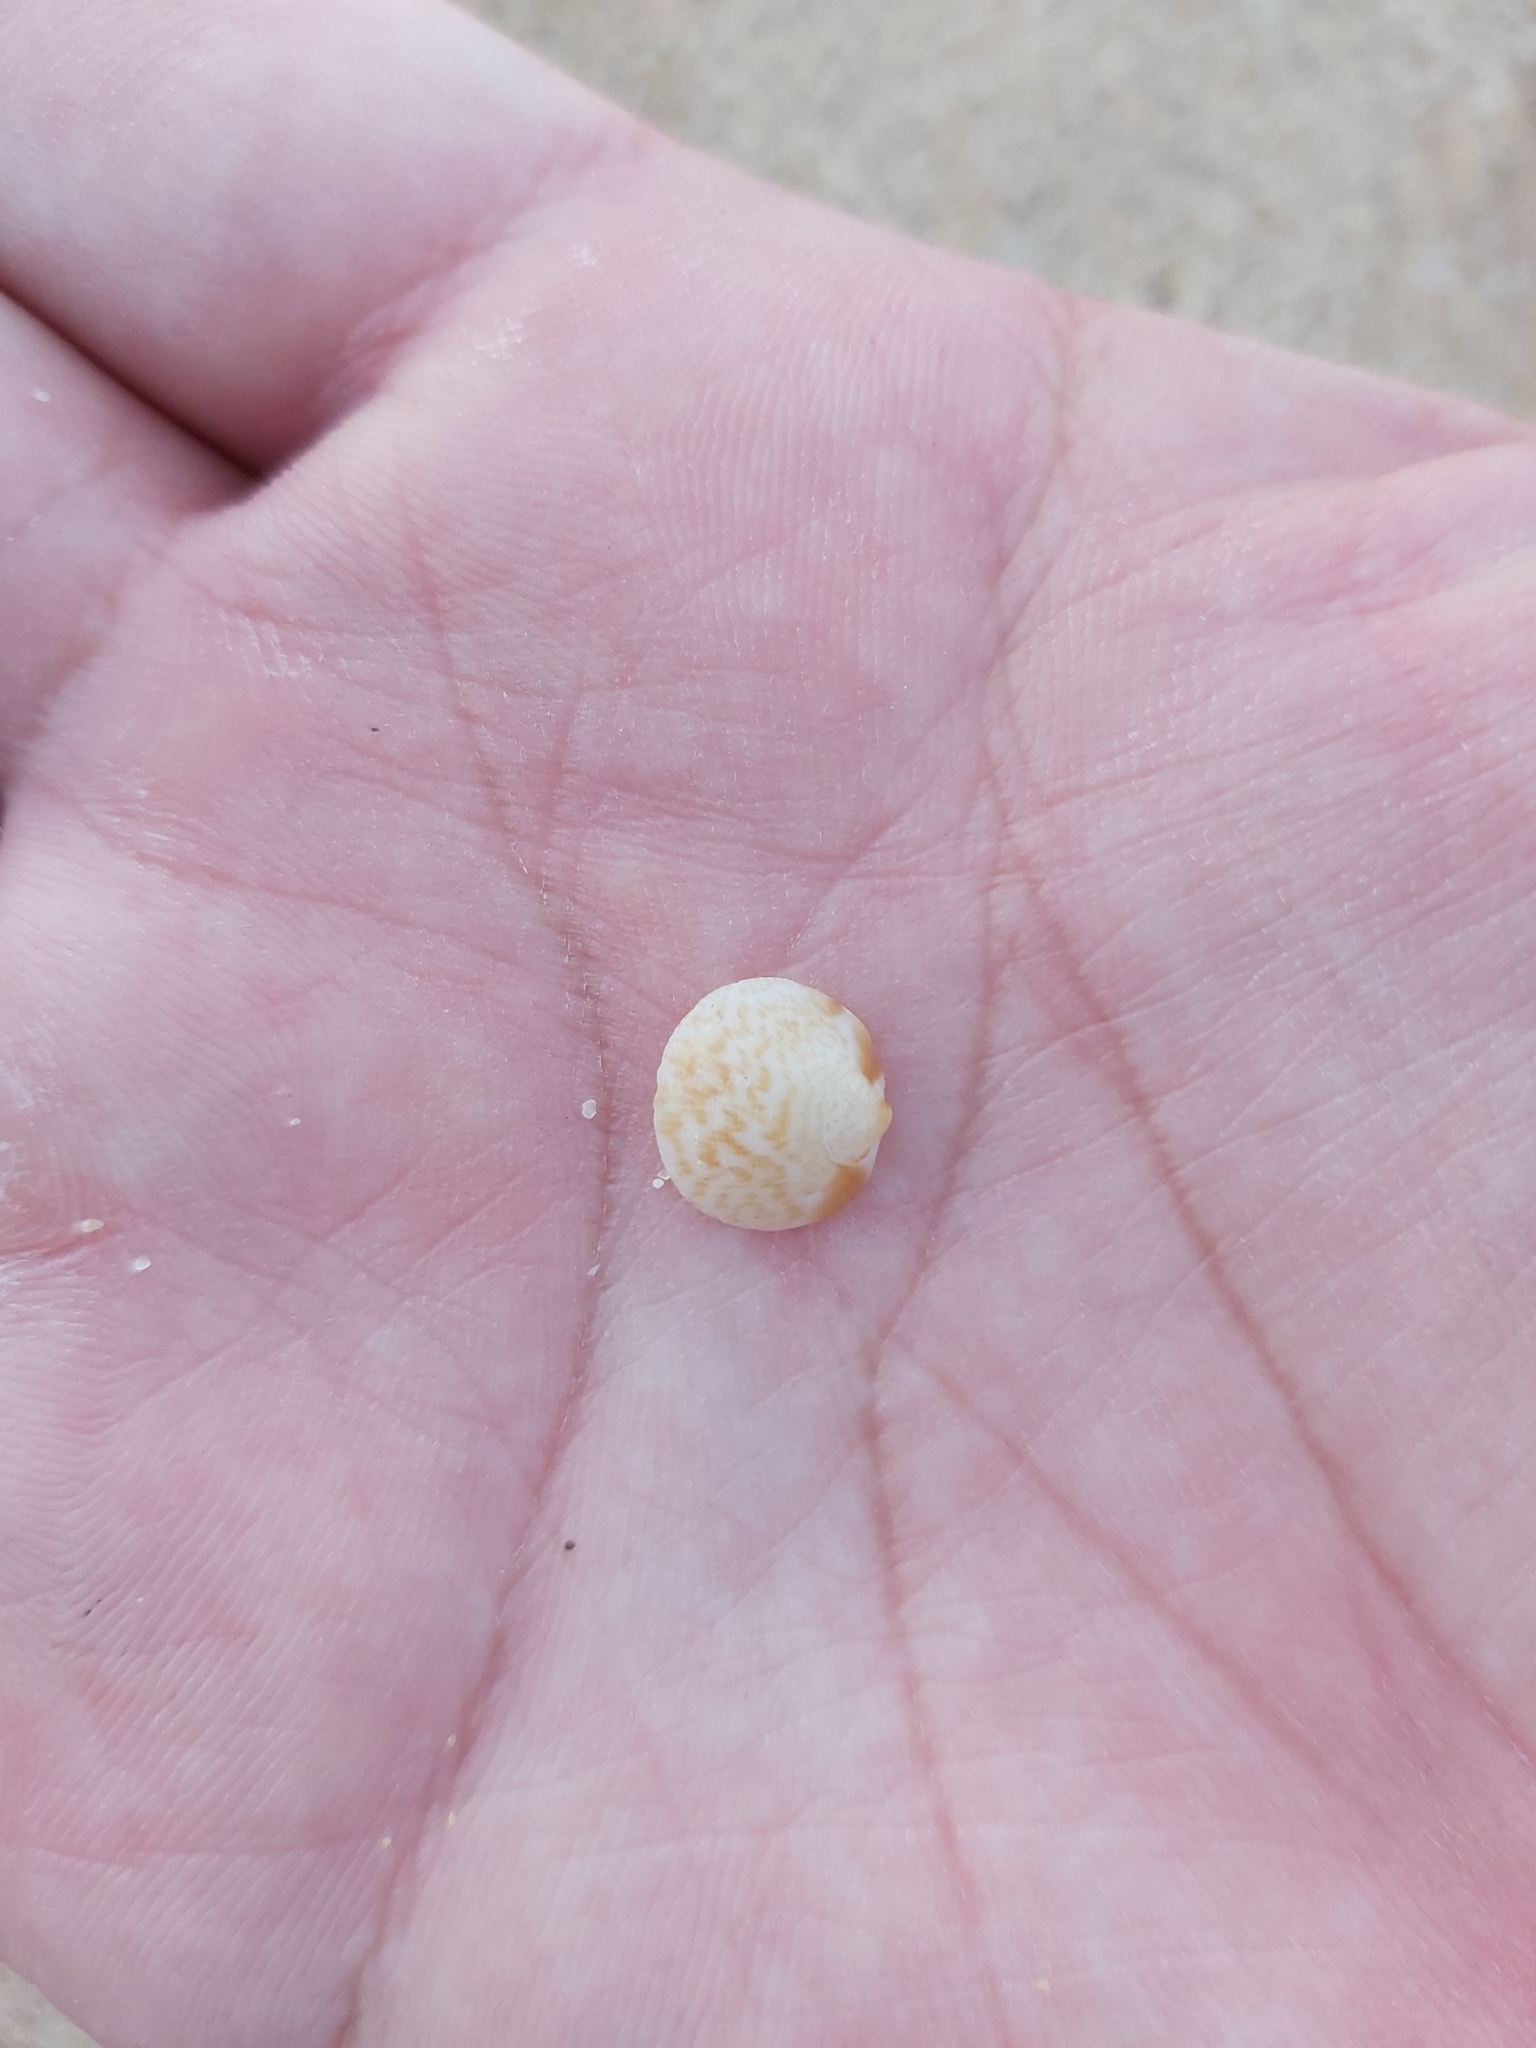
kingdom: Animalia
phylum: Mollusca
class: Bivalvia
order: Arcida
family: Glycymerididae
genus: Glycymeris
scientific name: Glycymeris grayana
